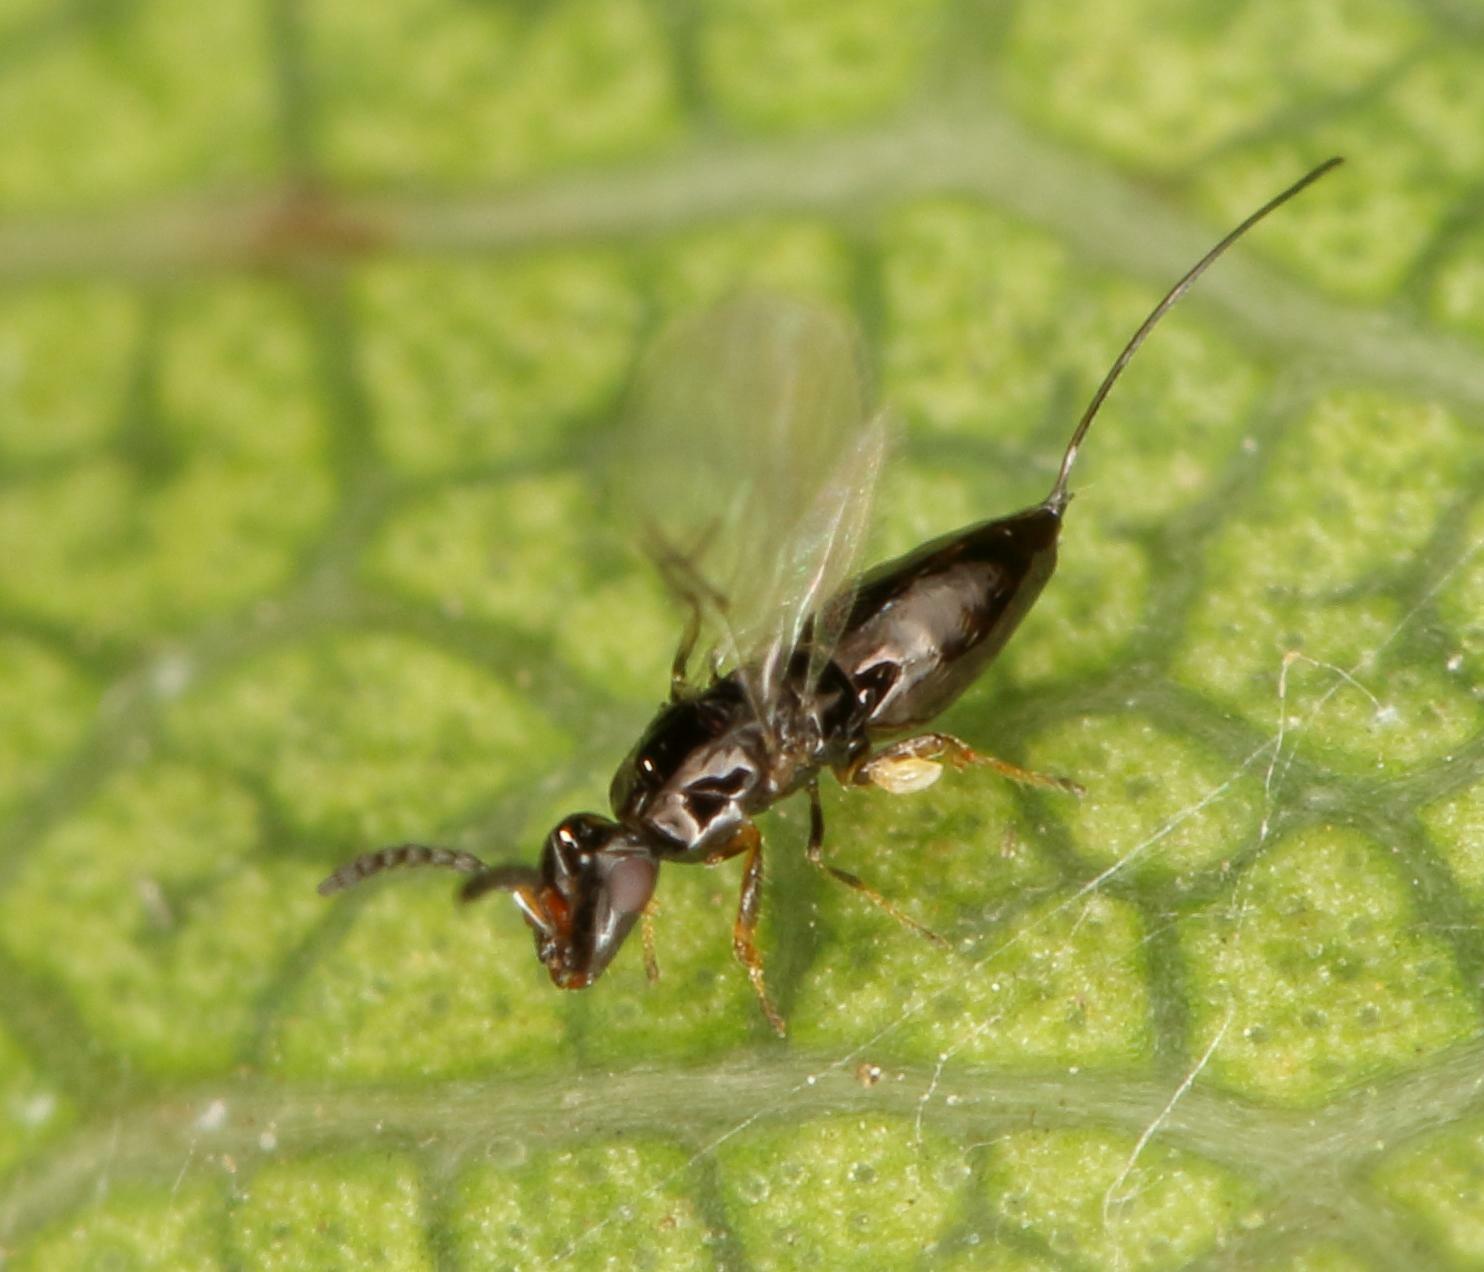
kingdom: Animalia
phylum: Arthropoda
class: Insecta
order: Hymenoptera
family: Agaonidae
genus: Elisabethiella
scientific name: Elisabethiella stueckenbergi
